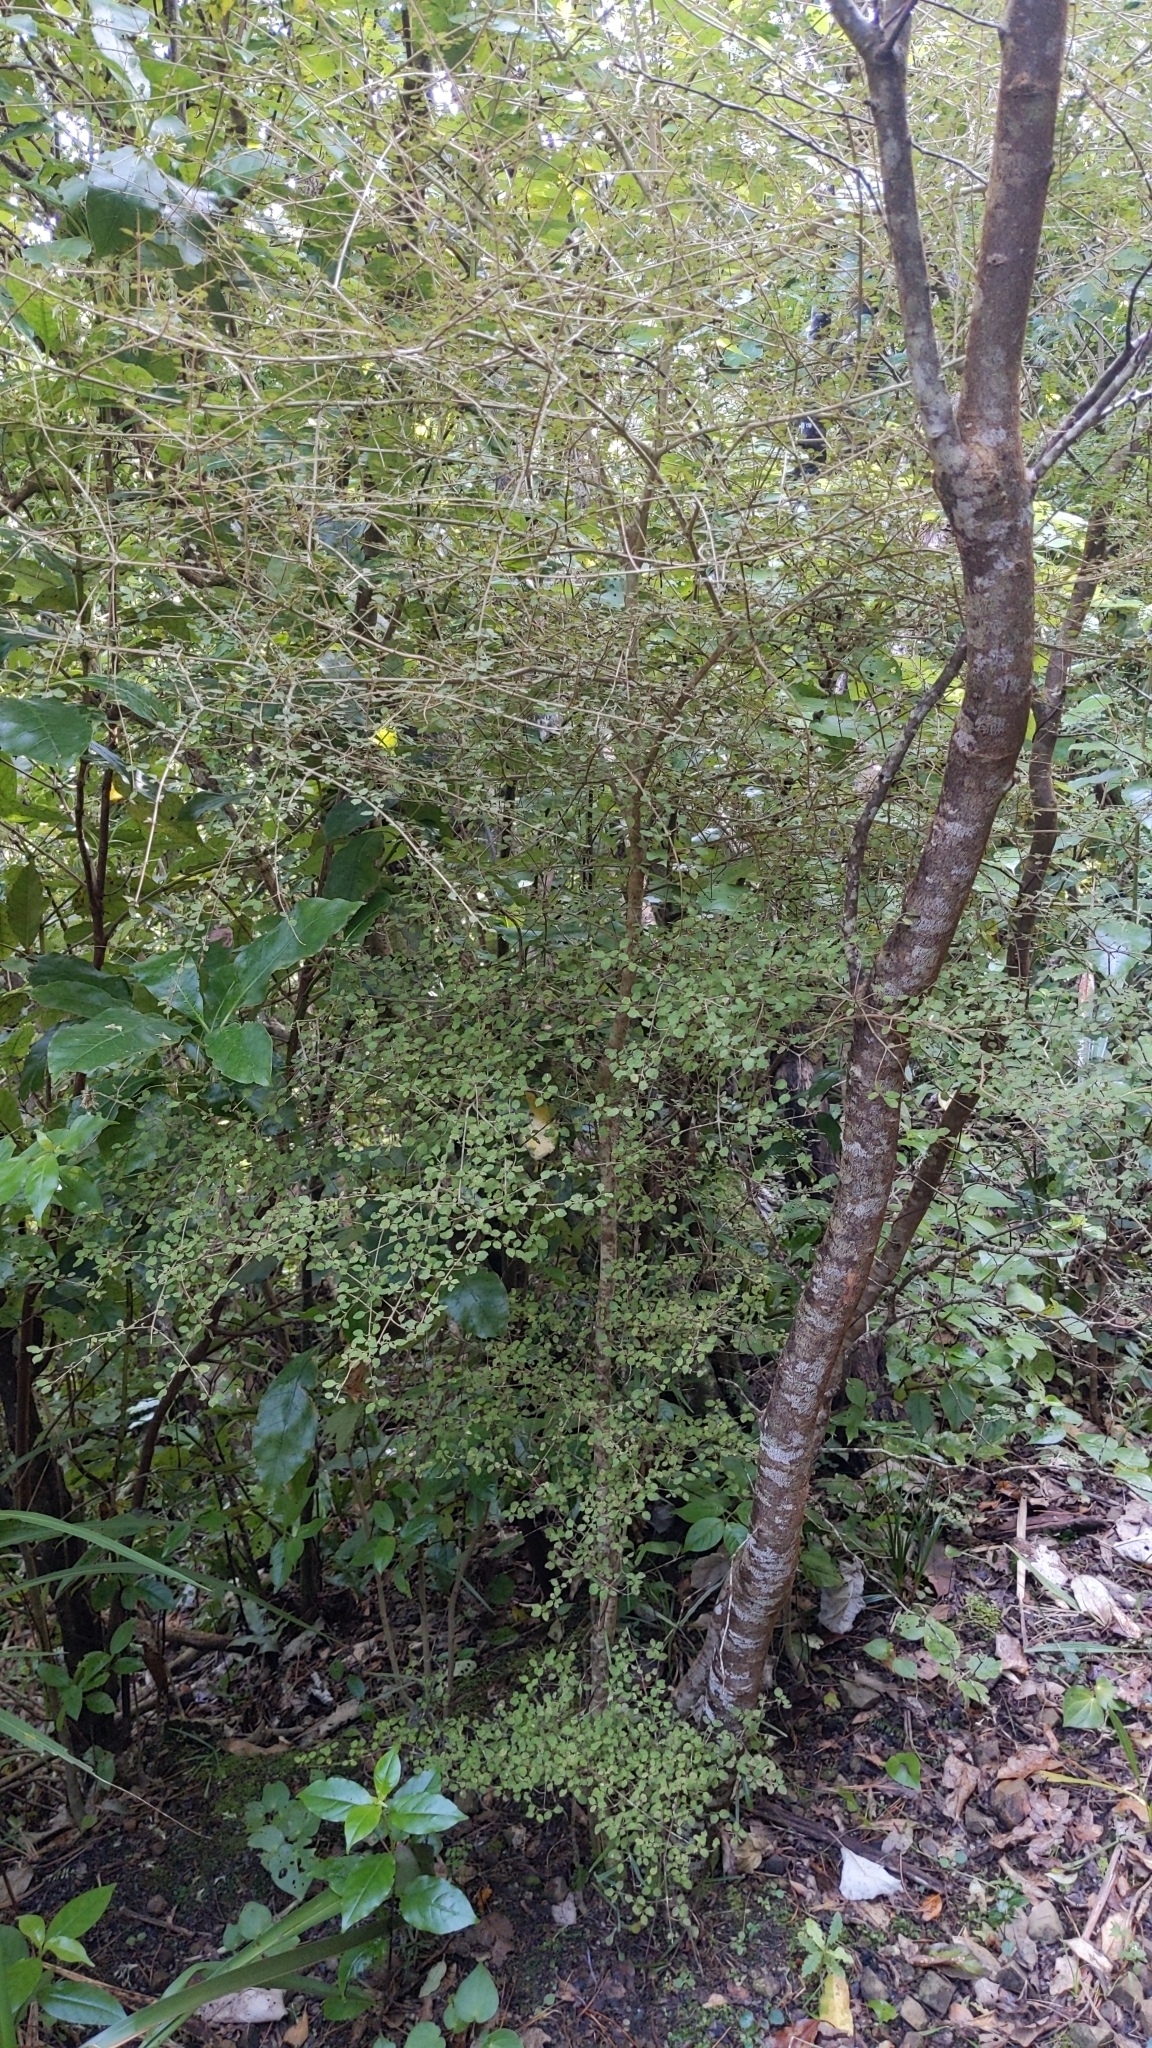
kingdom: Plantae
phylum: Tracheophyta
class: Magnoliopsida
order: Gentianales
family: Rubiaceae
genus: Coprosma
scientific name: Coprosma areolata
